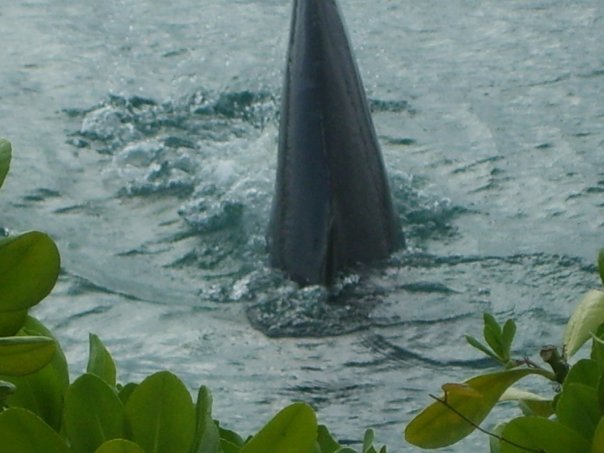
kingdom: Animalia
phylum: Chordata
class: Mammalia
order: Cetacea
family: Delphinidae
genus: Tursiops
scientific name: Tursiops truncatus
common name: Bottlenose dolphin
